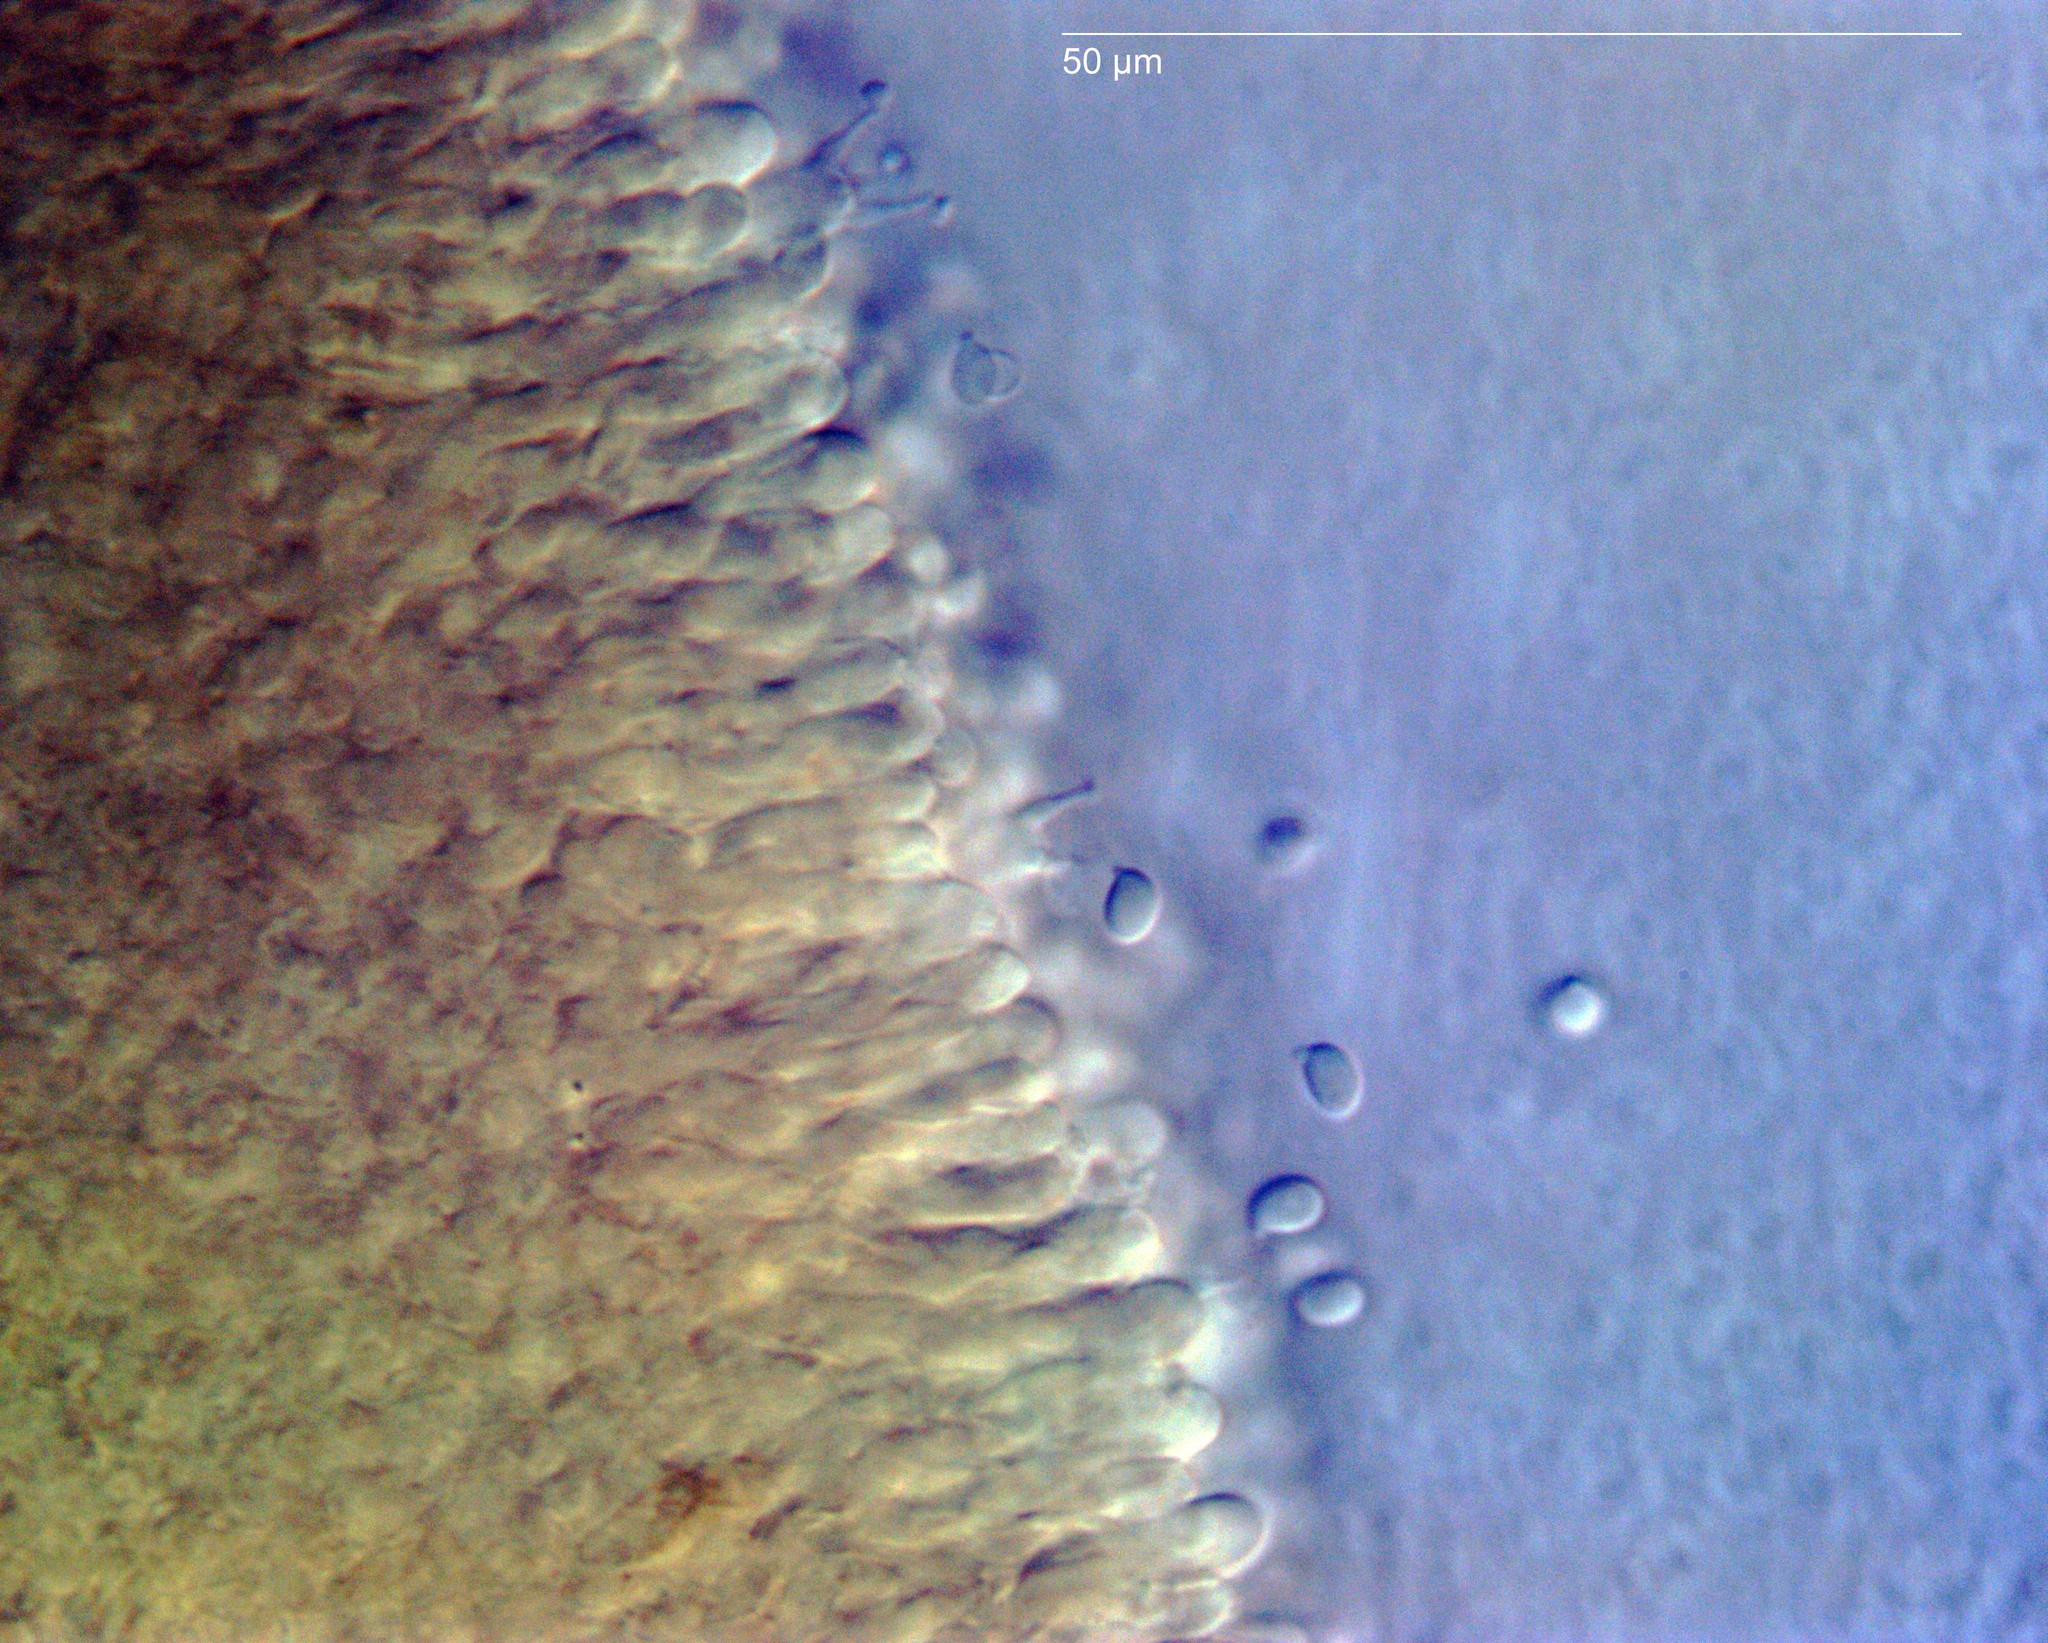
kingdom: Fungi
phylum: Basidiomycota
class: Agaricomycetes
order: Agaricales
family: Tricholomataceae
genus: Clitocybe
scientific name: Clitocybe wellingtonensis
